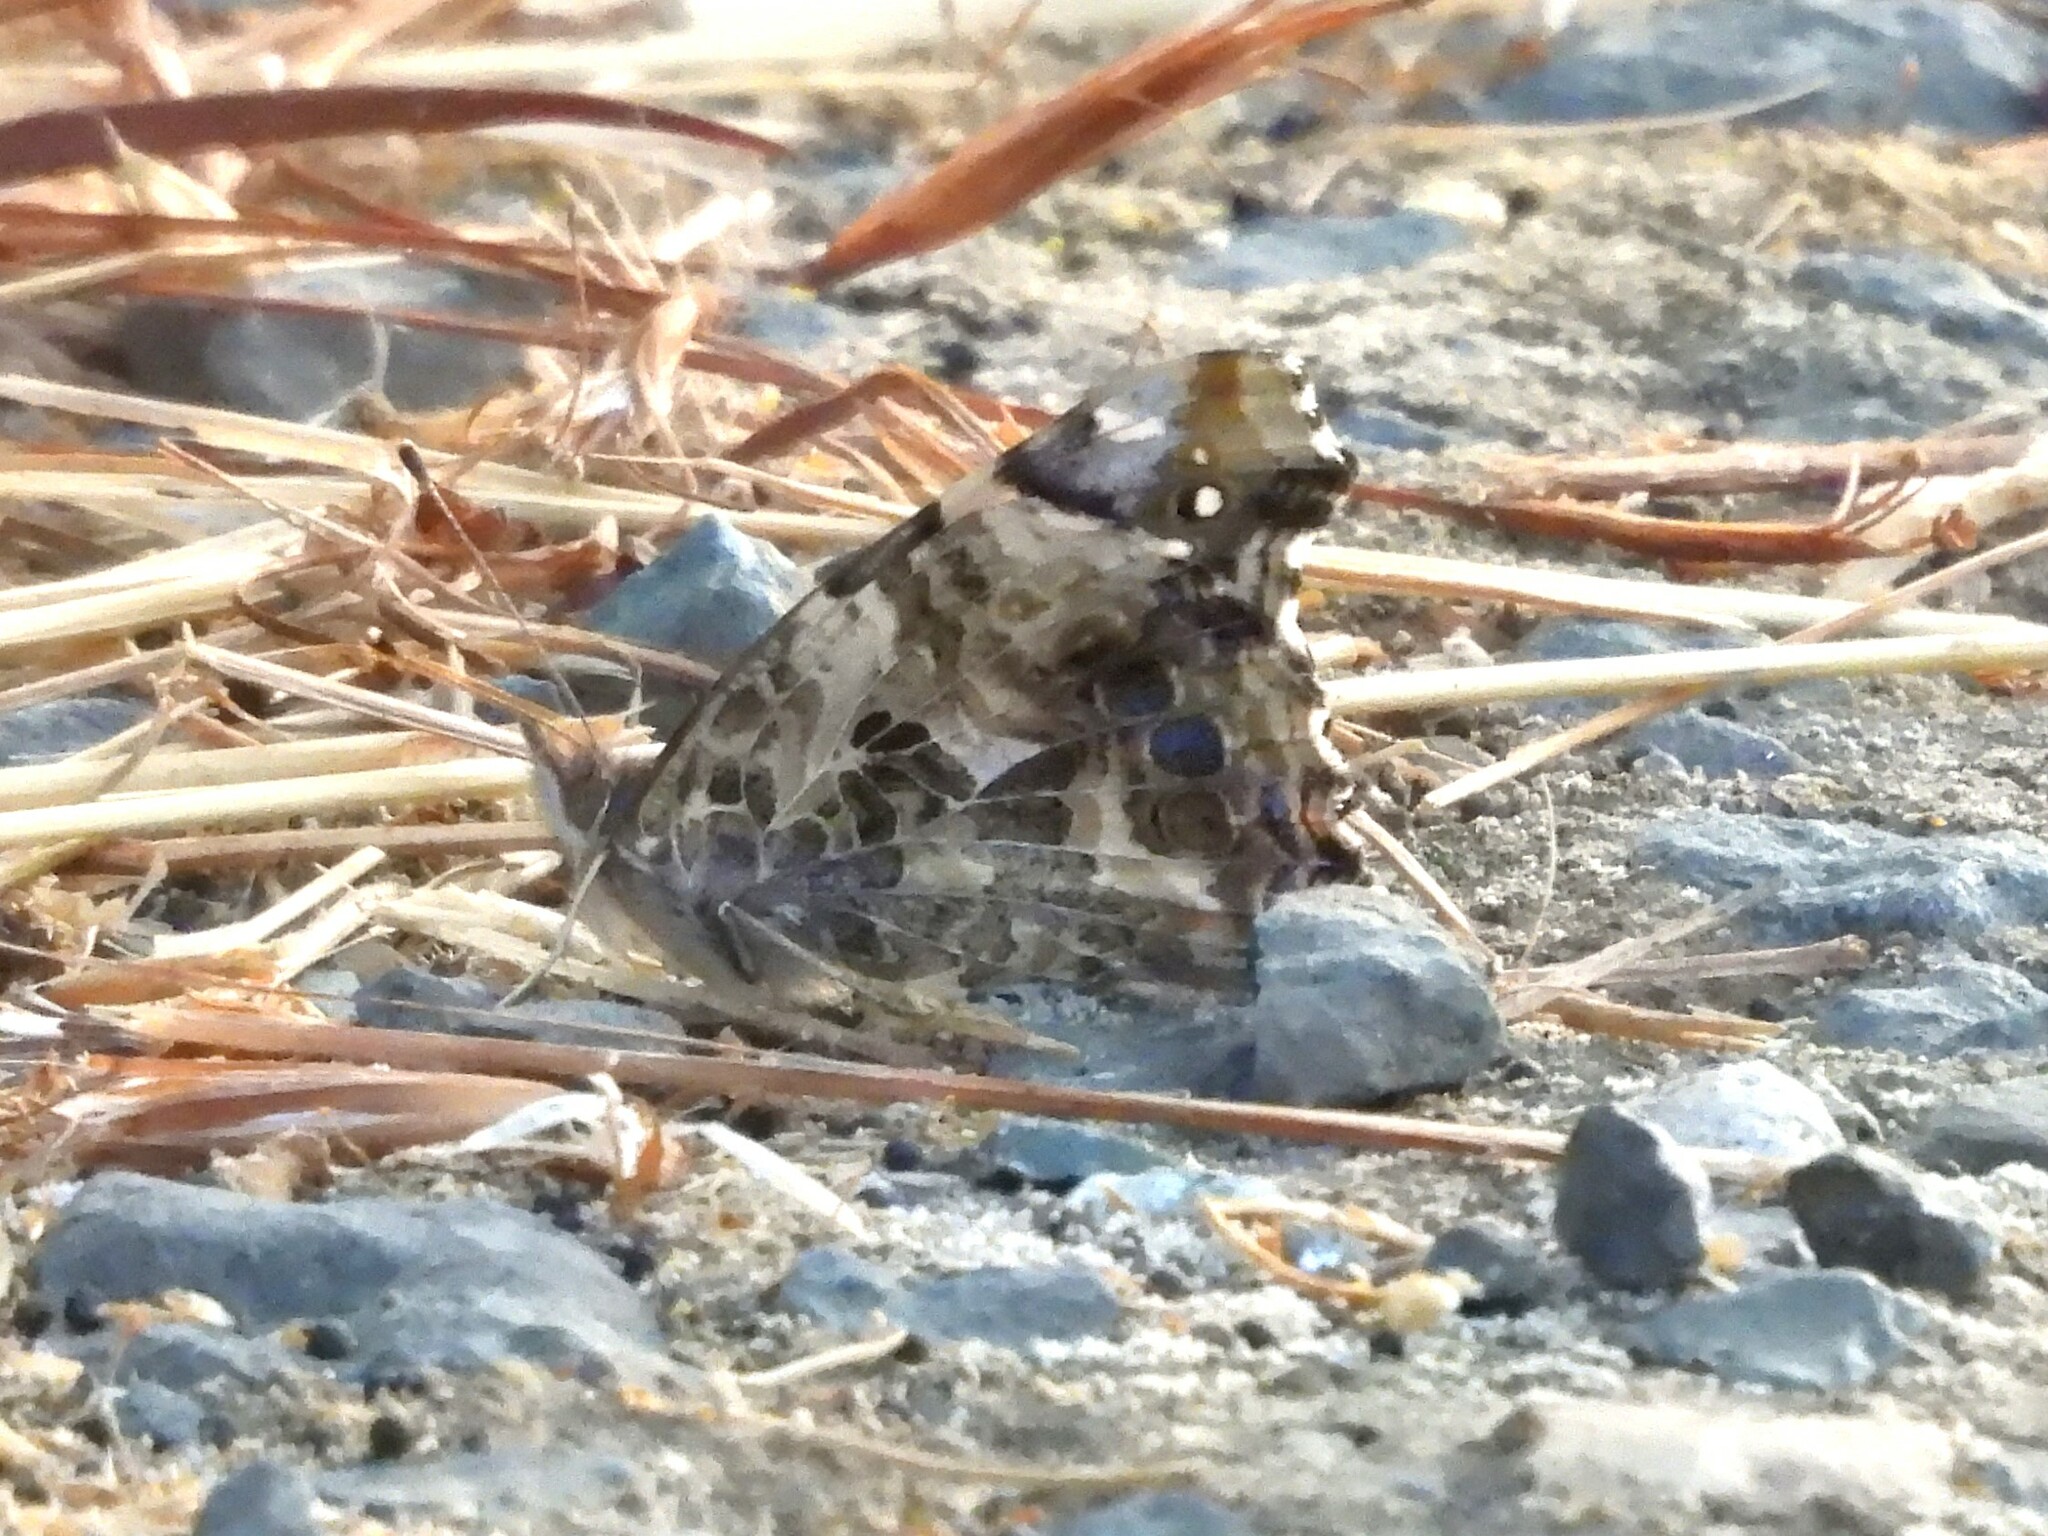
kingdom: Animalia
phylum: Arthropoda
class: Insecta
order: Lepidoptera
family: Nymphalidae
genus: Vanessa
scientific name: Vanessa annabella
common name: West coast lady
